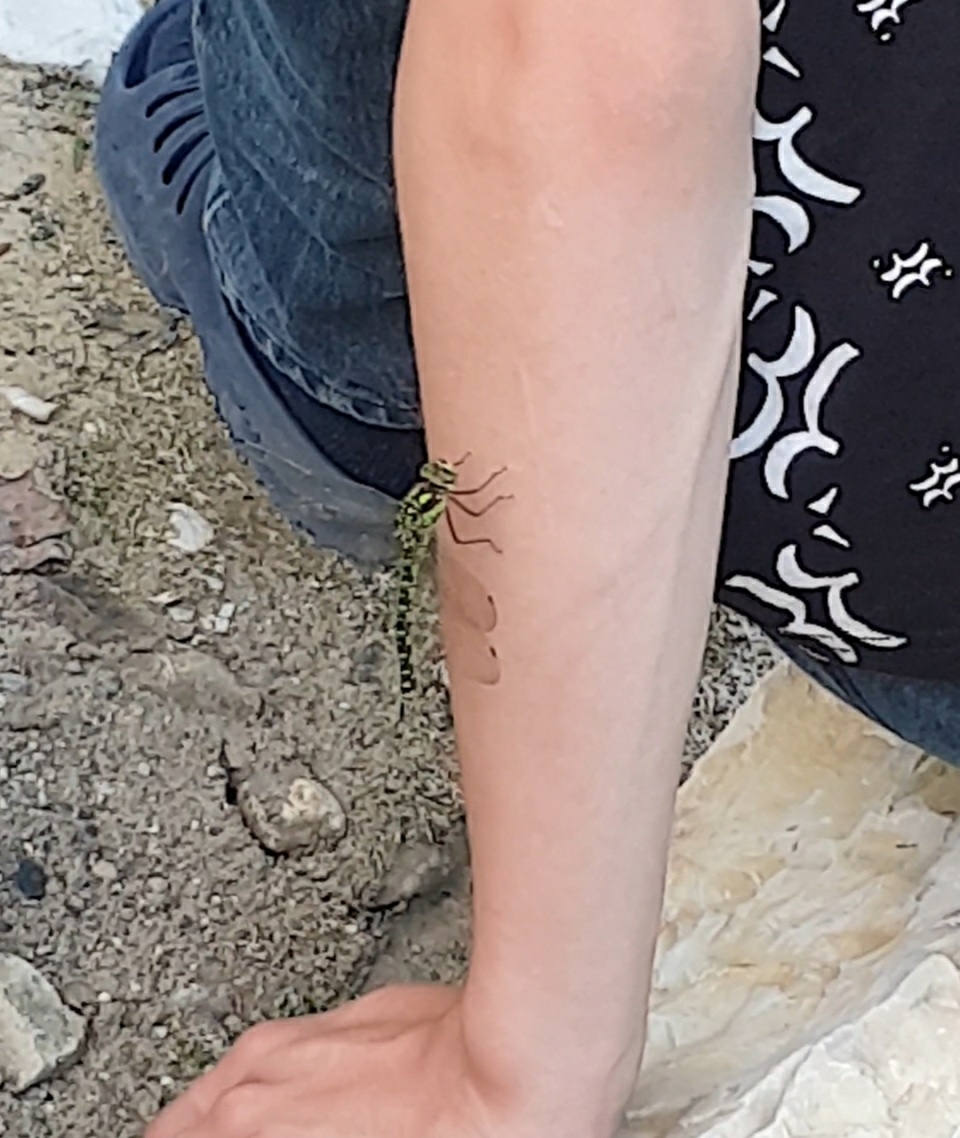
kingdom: Animalia
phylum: Arthropoda
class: Insecta
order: Odonata
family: Aeshnidae
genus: Aeshna
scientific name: Aeshna cyanea
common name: Southern hawker
